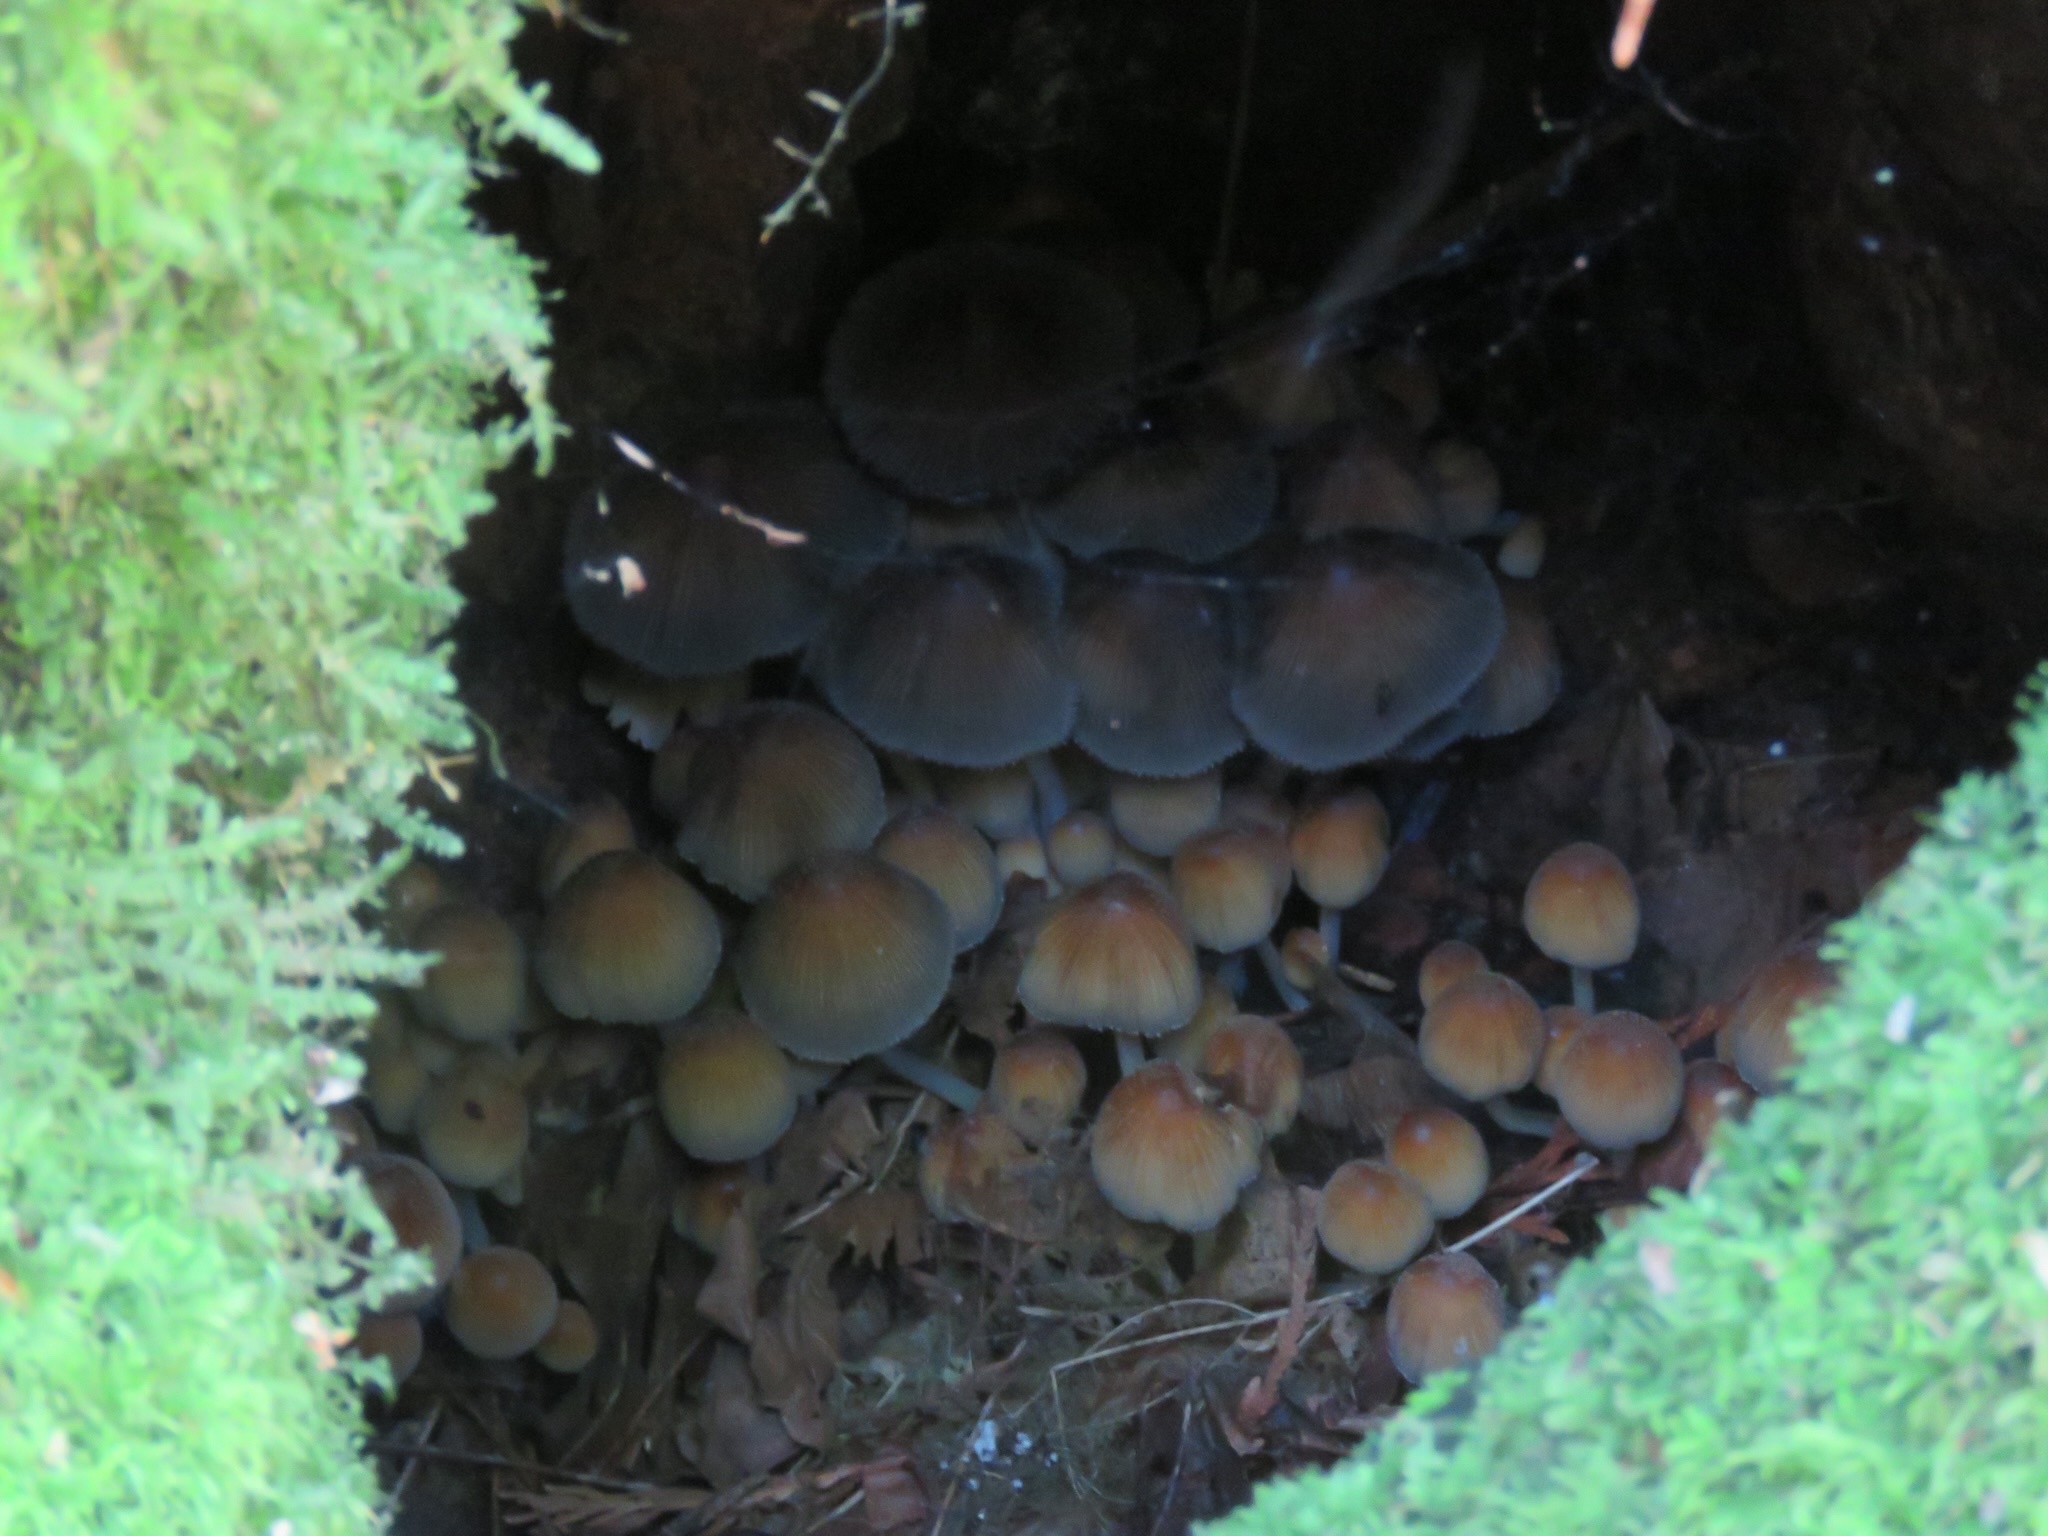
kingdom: Fungi
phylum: Basidiomycota
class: Agaricomycetes
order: Agaricales
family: Psathyrellaceae
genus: Coprinellus
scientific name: Coprinellus micaceus
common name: Glistening ink-cap
